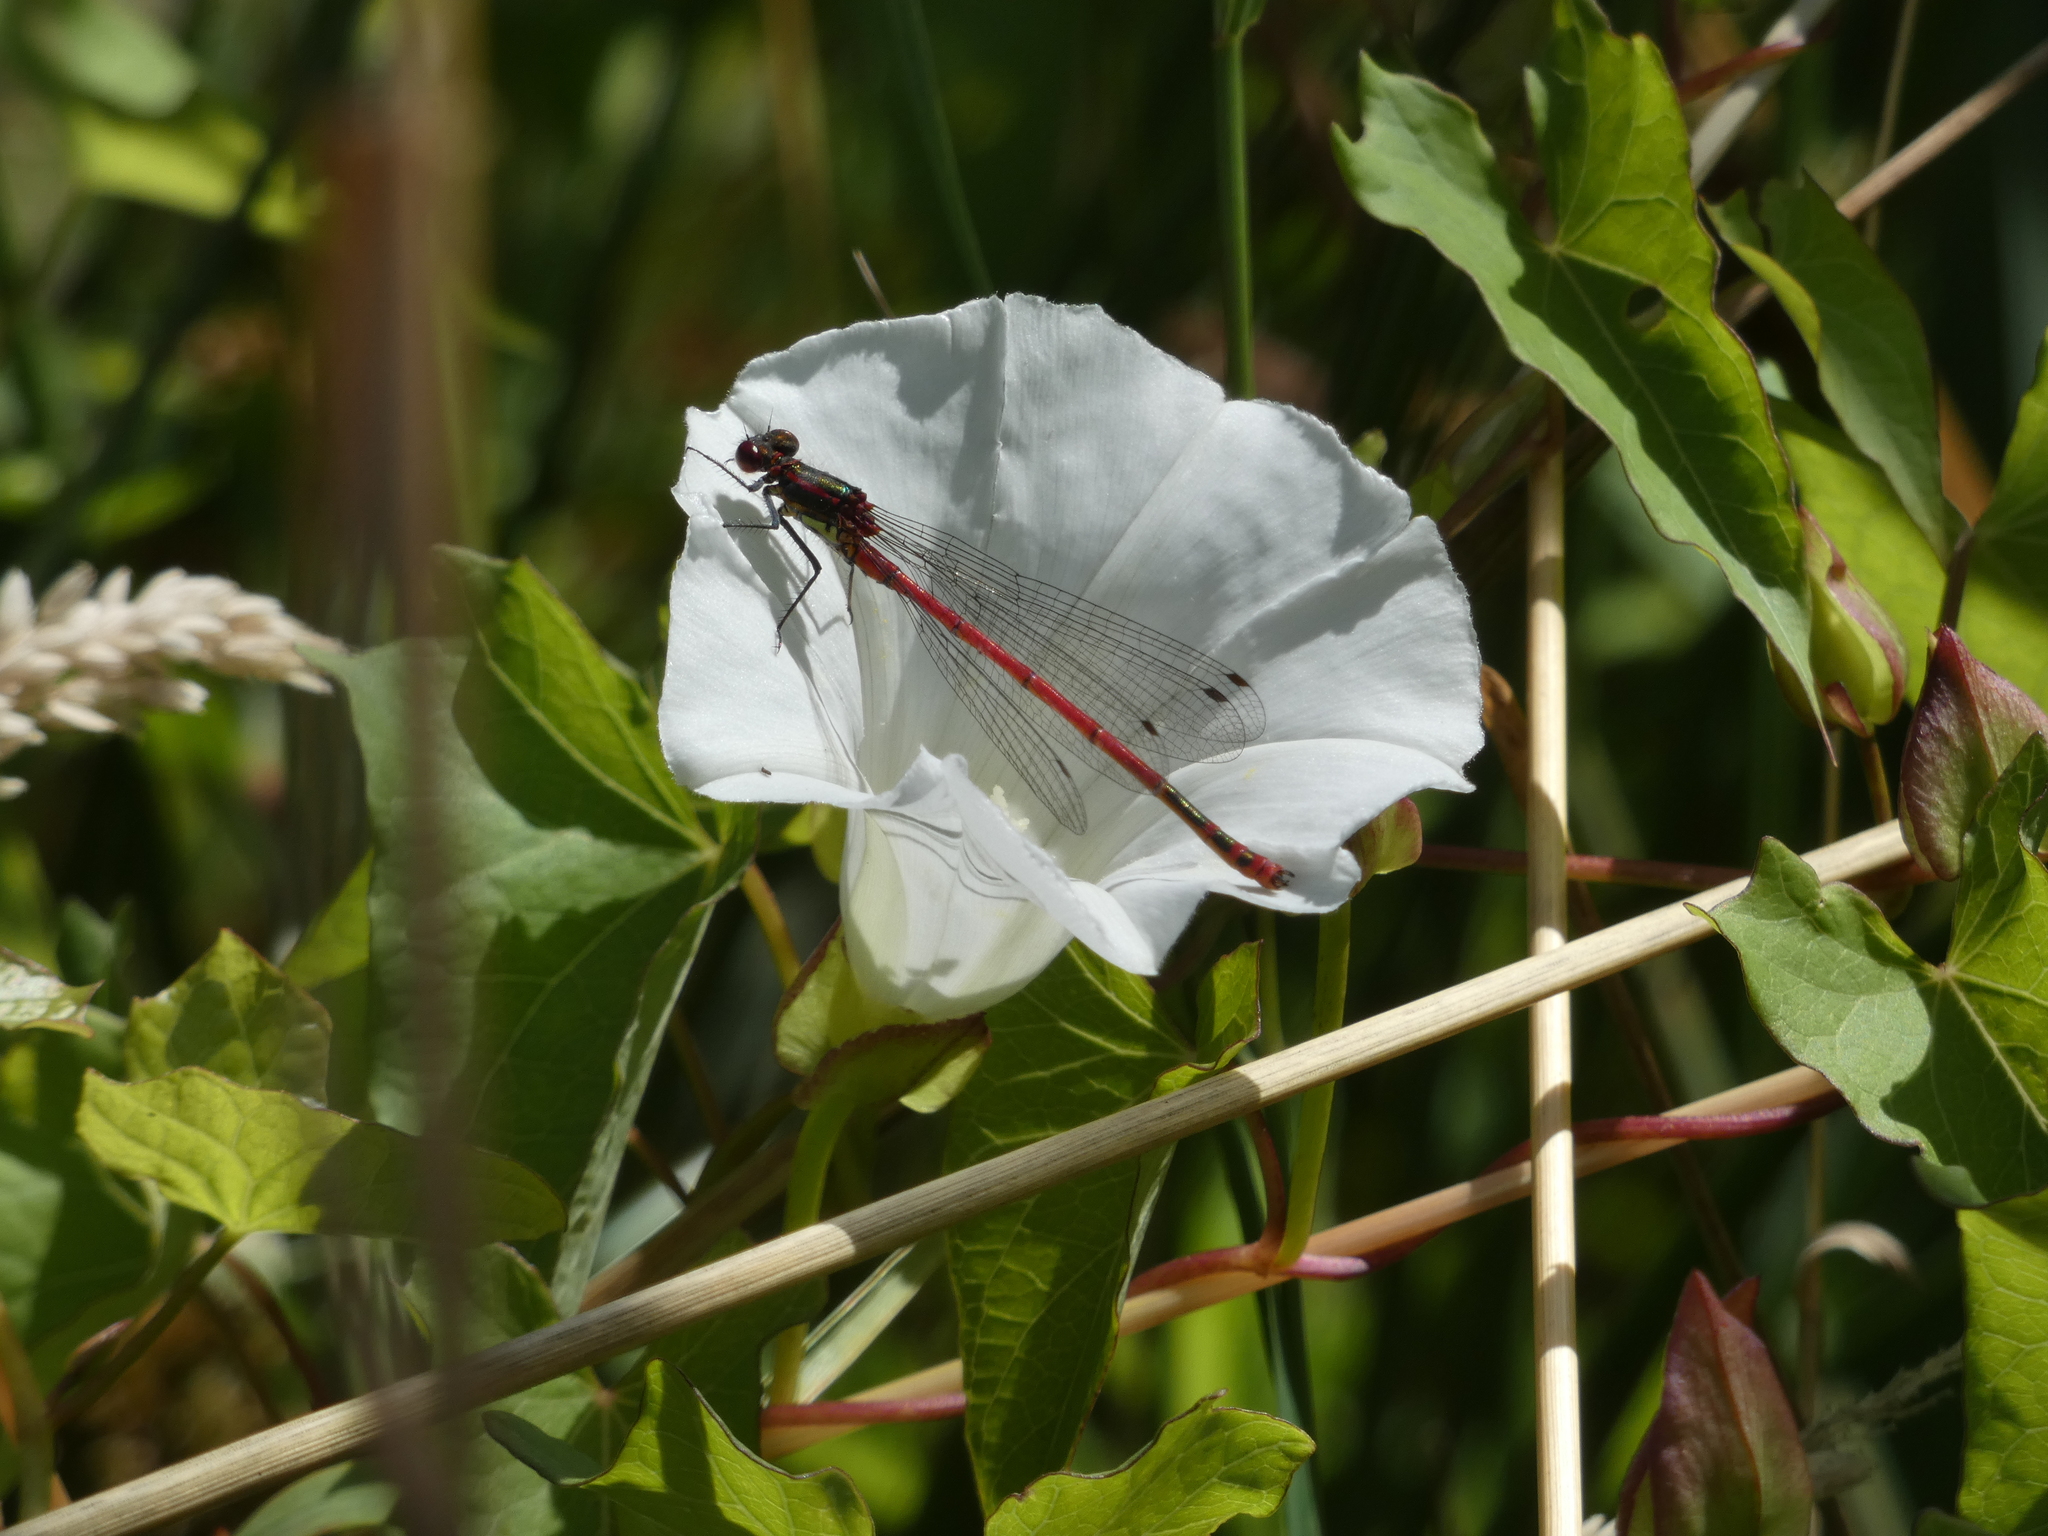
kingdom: Animalia
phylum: Arthropoda
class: Insecta
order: Odonata
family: Coenagrionidae
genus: Pyrrhosoma
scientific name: Pyrrhosoma nymphula
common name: Large red damsel
